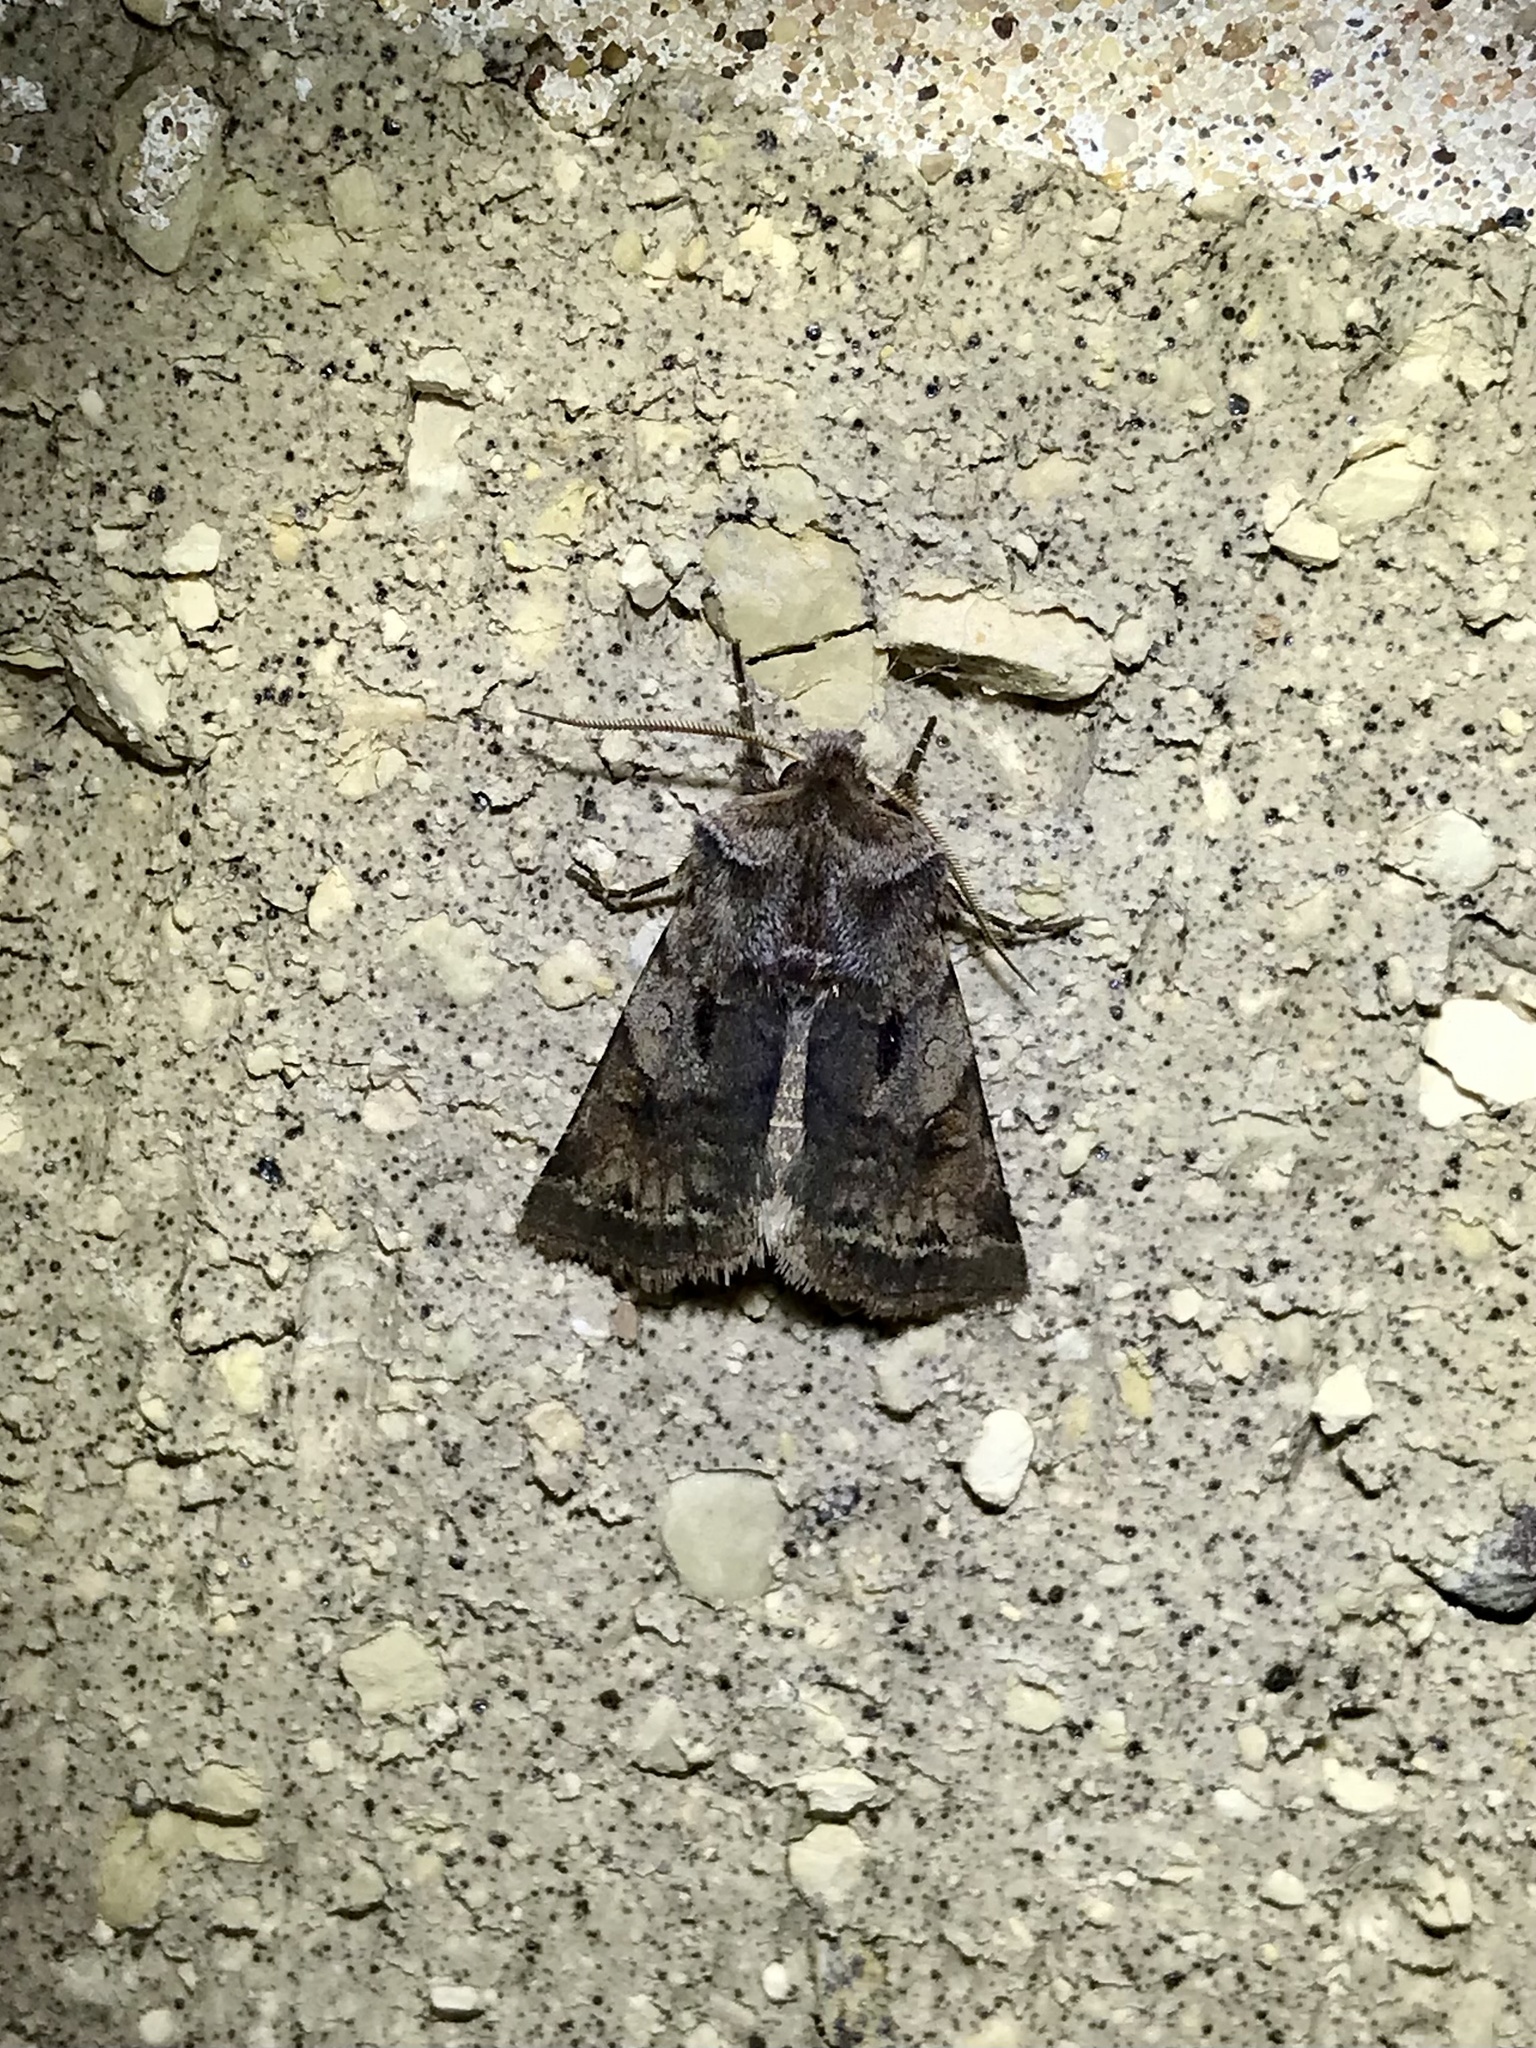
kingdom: Animalia
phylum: Arthropoda
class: Insecta
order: Lepidoptera
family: Noctuidae
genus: Cerastis
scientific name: Cerastis salicarum
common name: Willow dart
